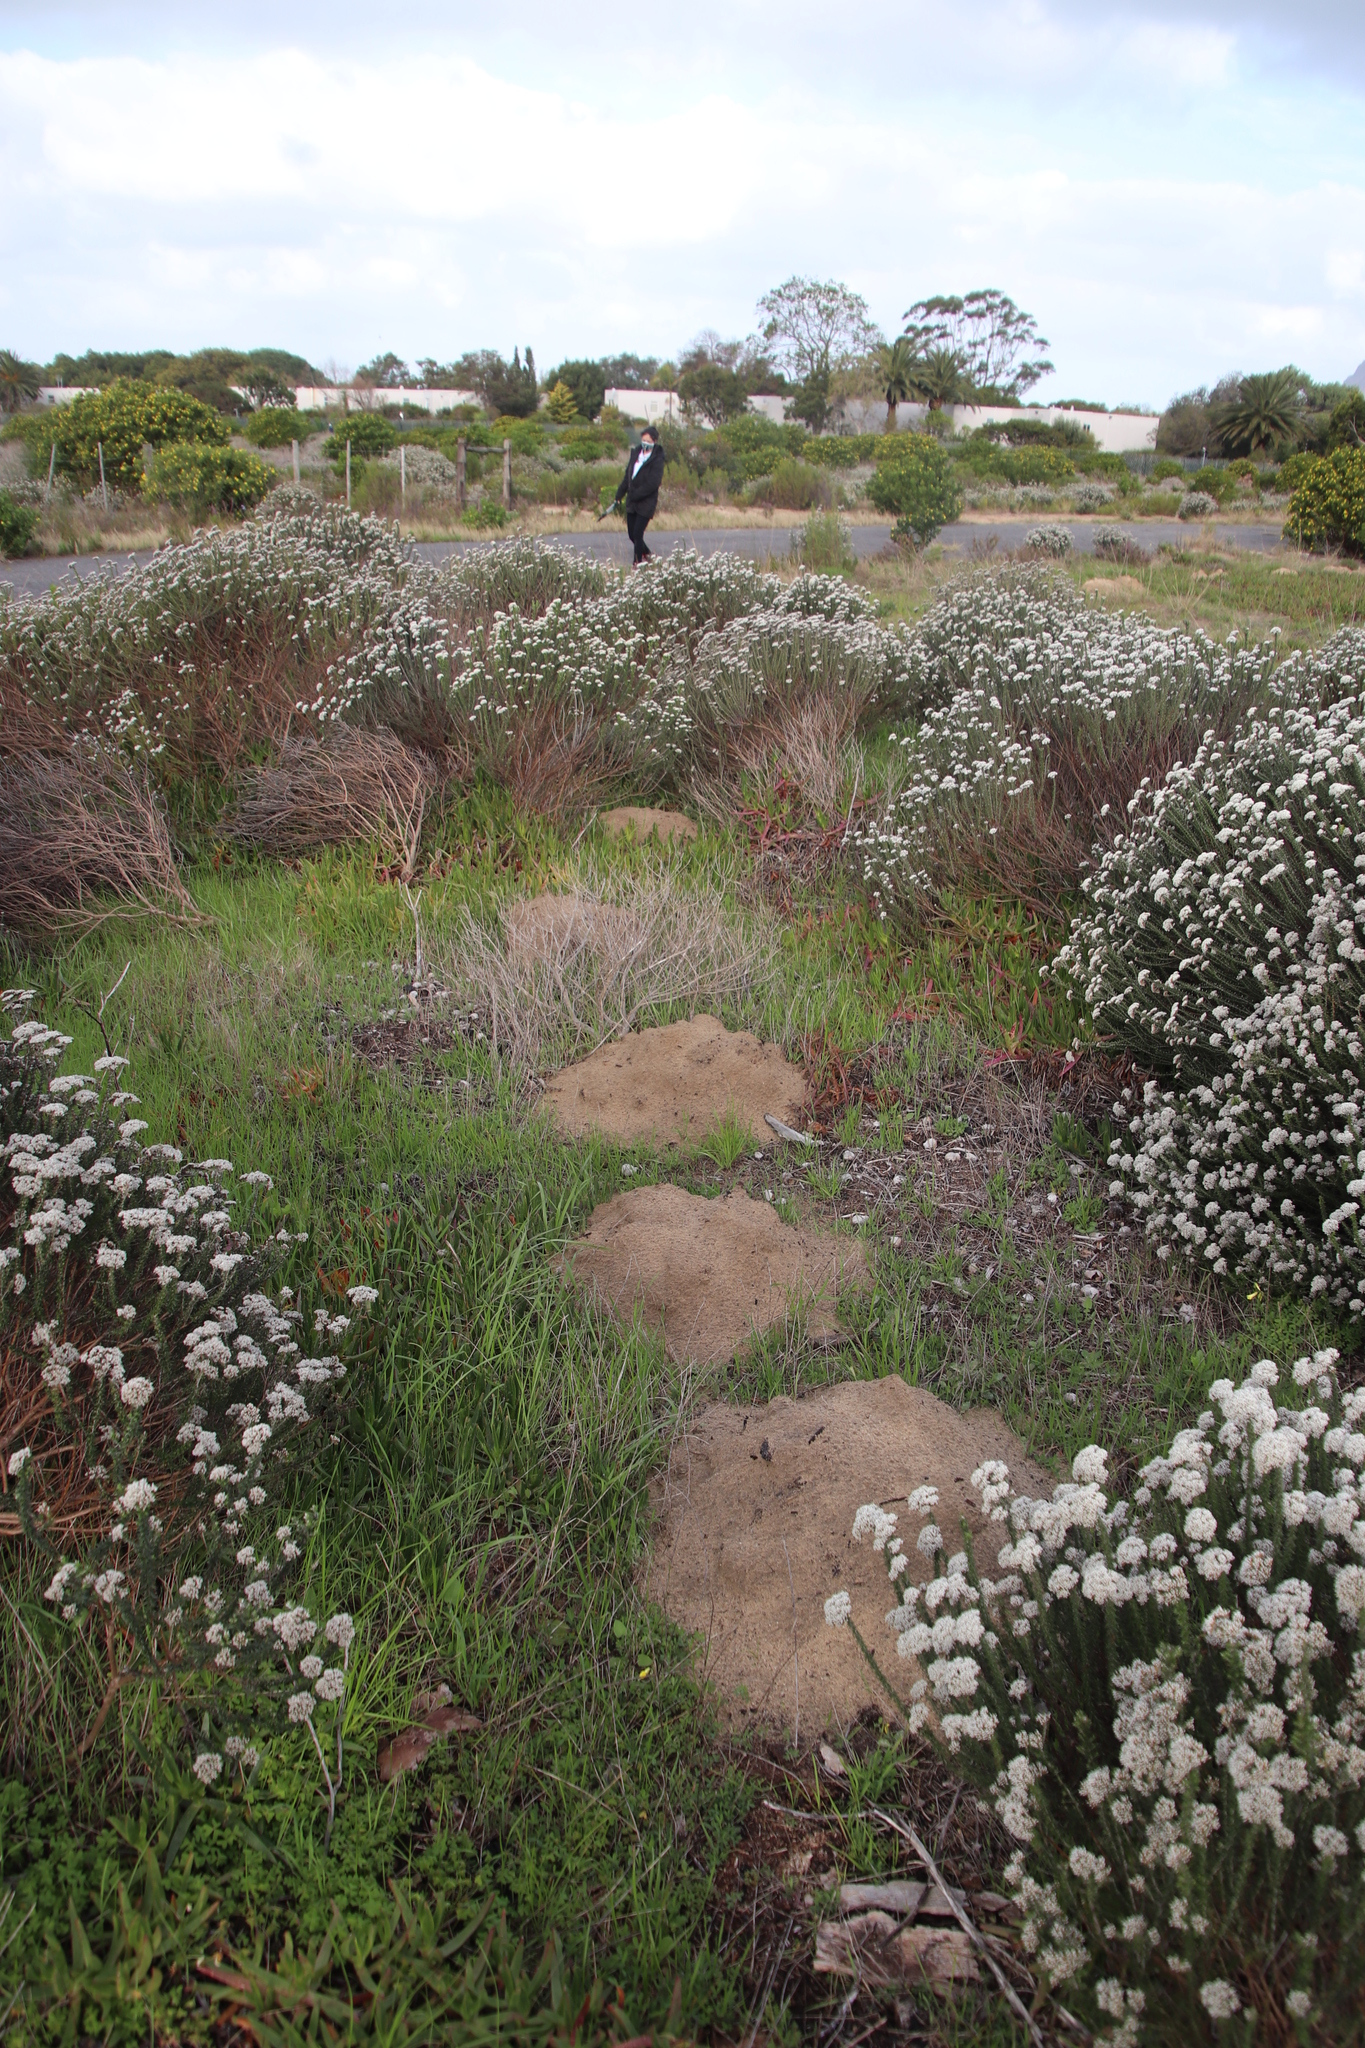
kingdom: Animalia
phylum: Chordata
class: Mammalia
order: Rodentia
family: Bathyergidae
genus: Bathyergus
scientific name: Bathyergus suillus
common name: Cape dune mole rat
